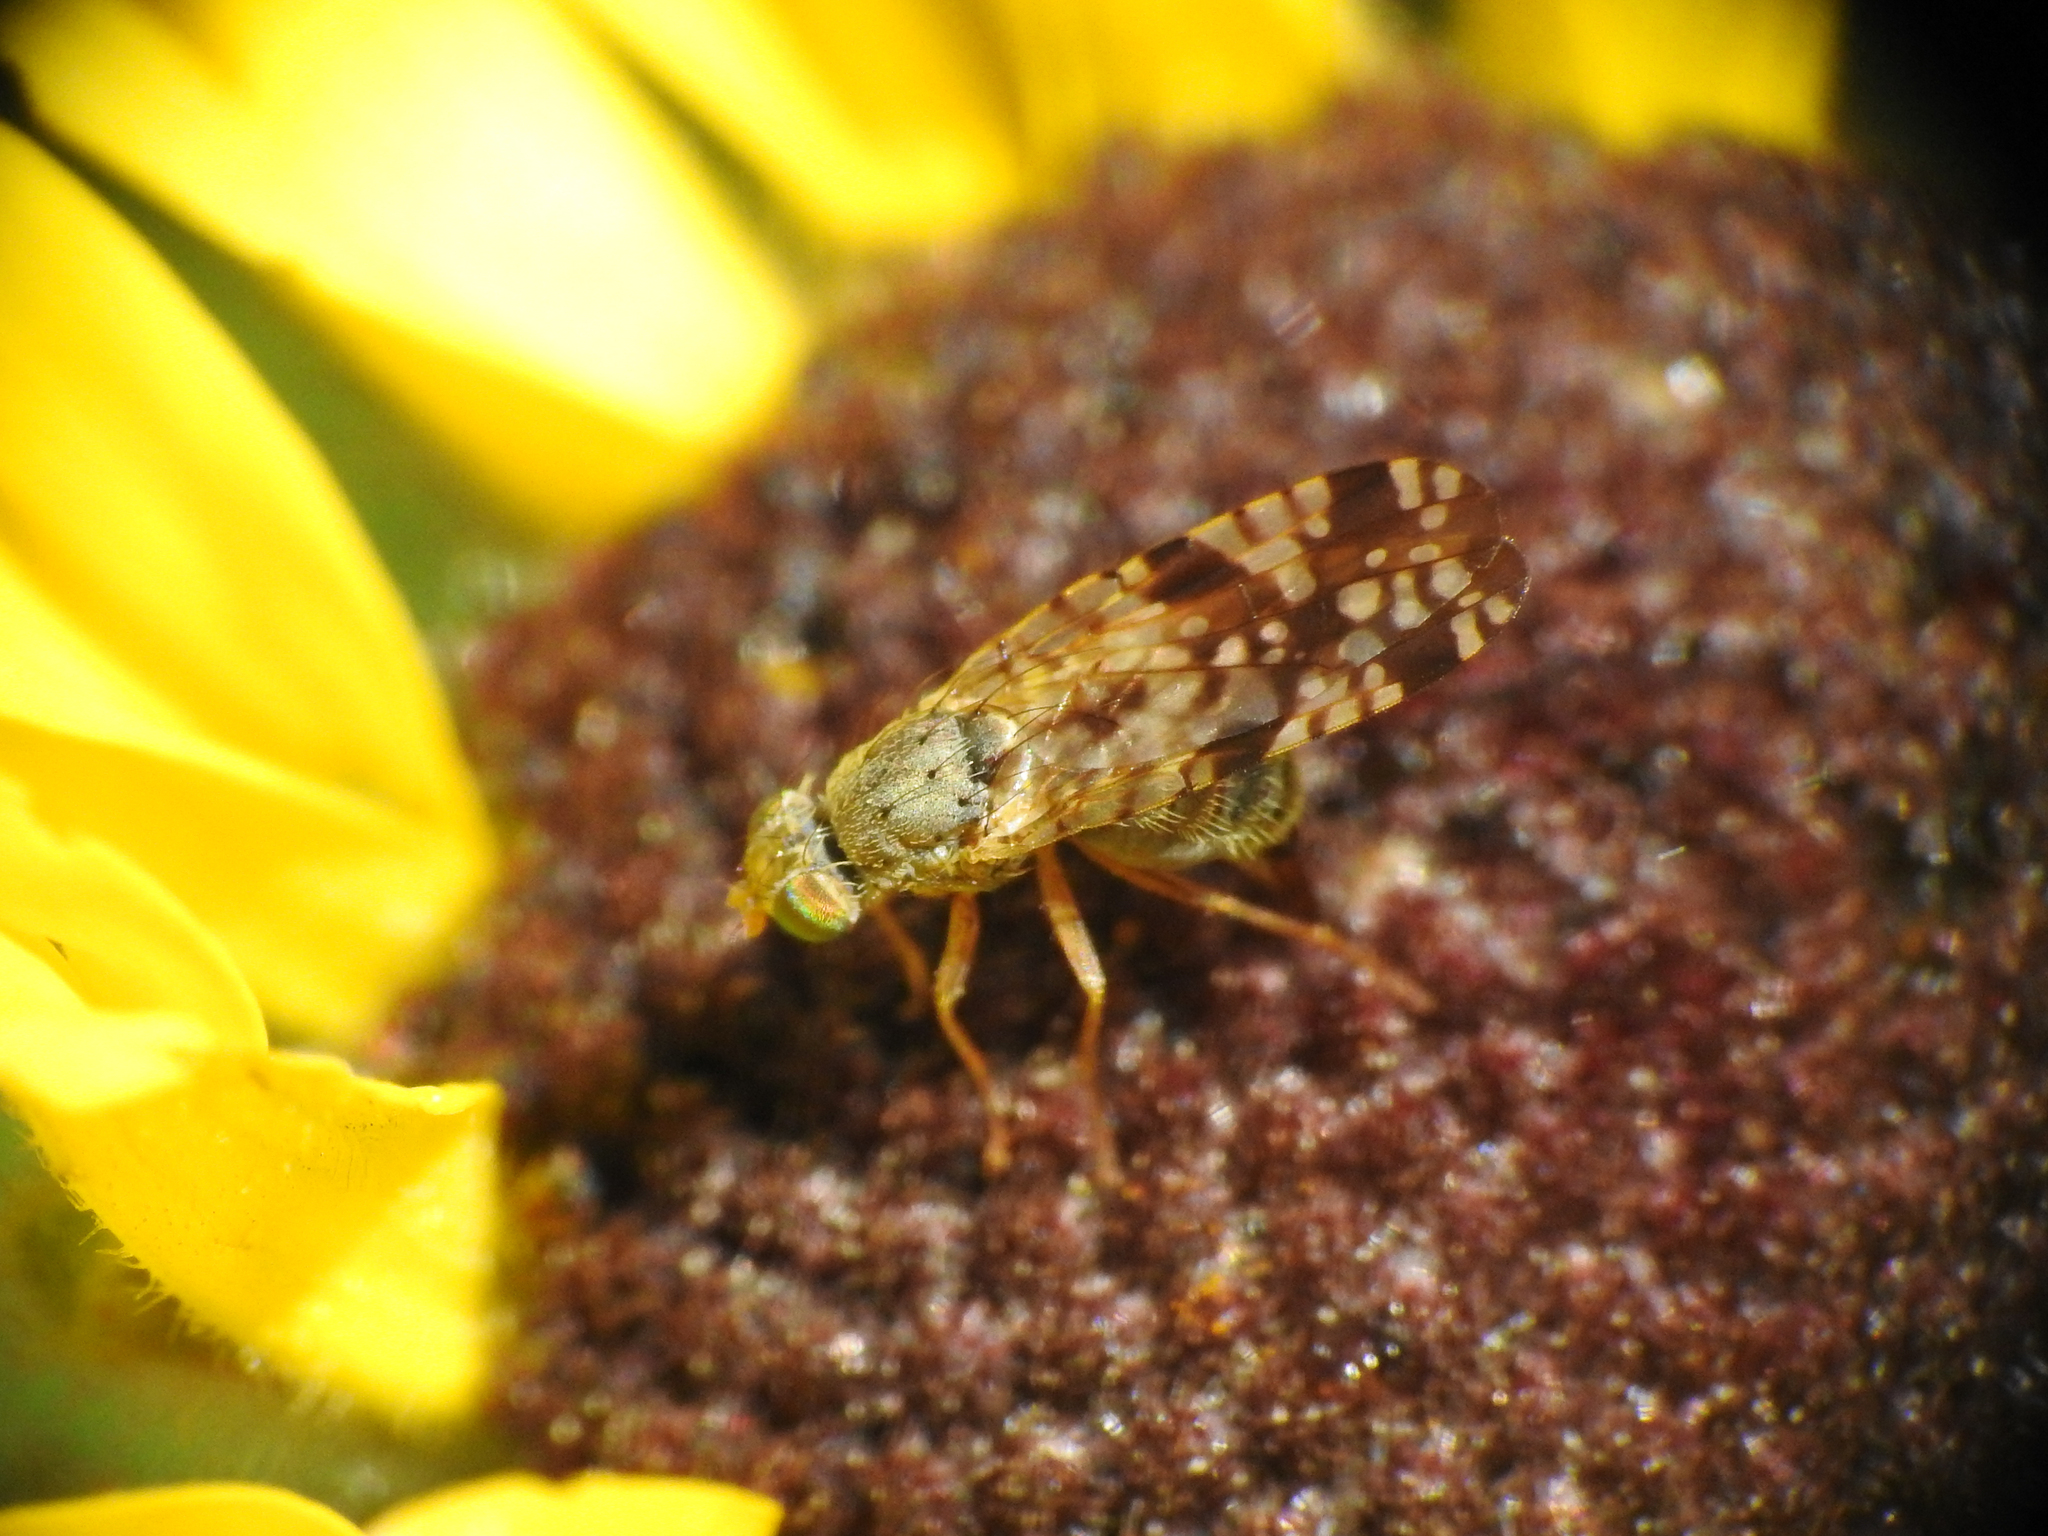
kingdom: Animalia
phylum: Arthropoda
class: Insecta
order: Diptera
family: Tephritidae
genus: Neotephritis
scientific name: Neotephritis finalis
